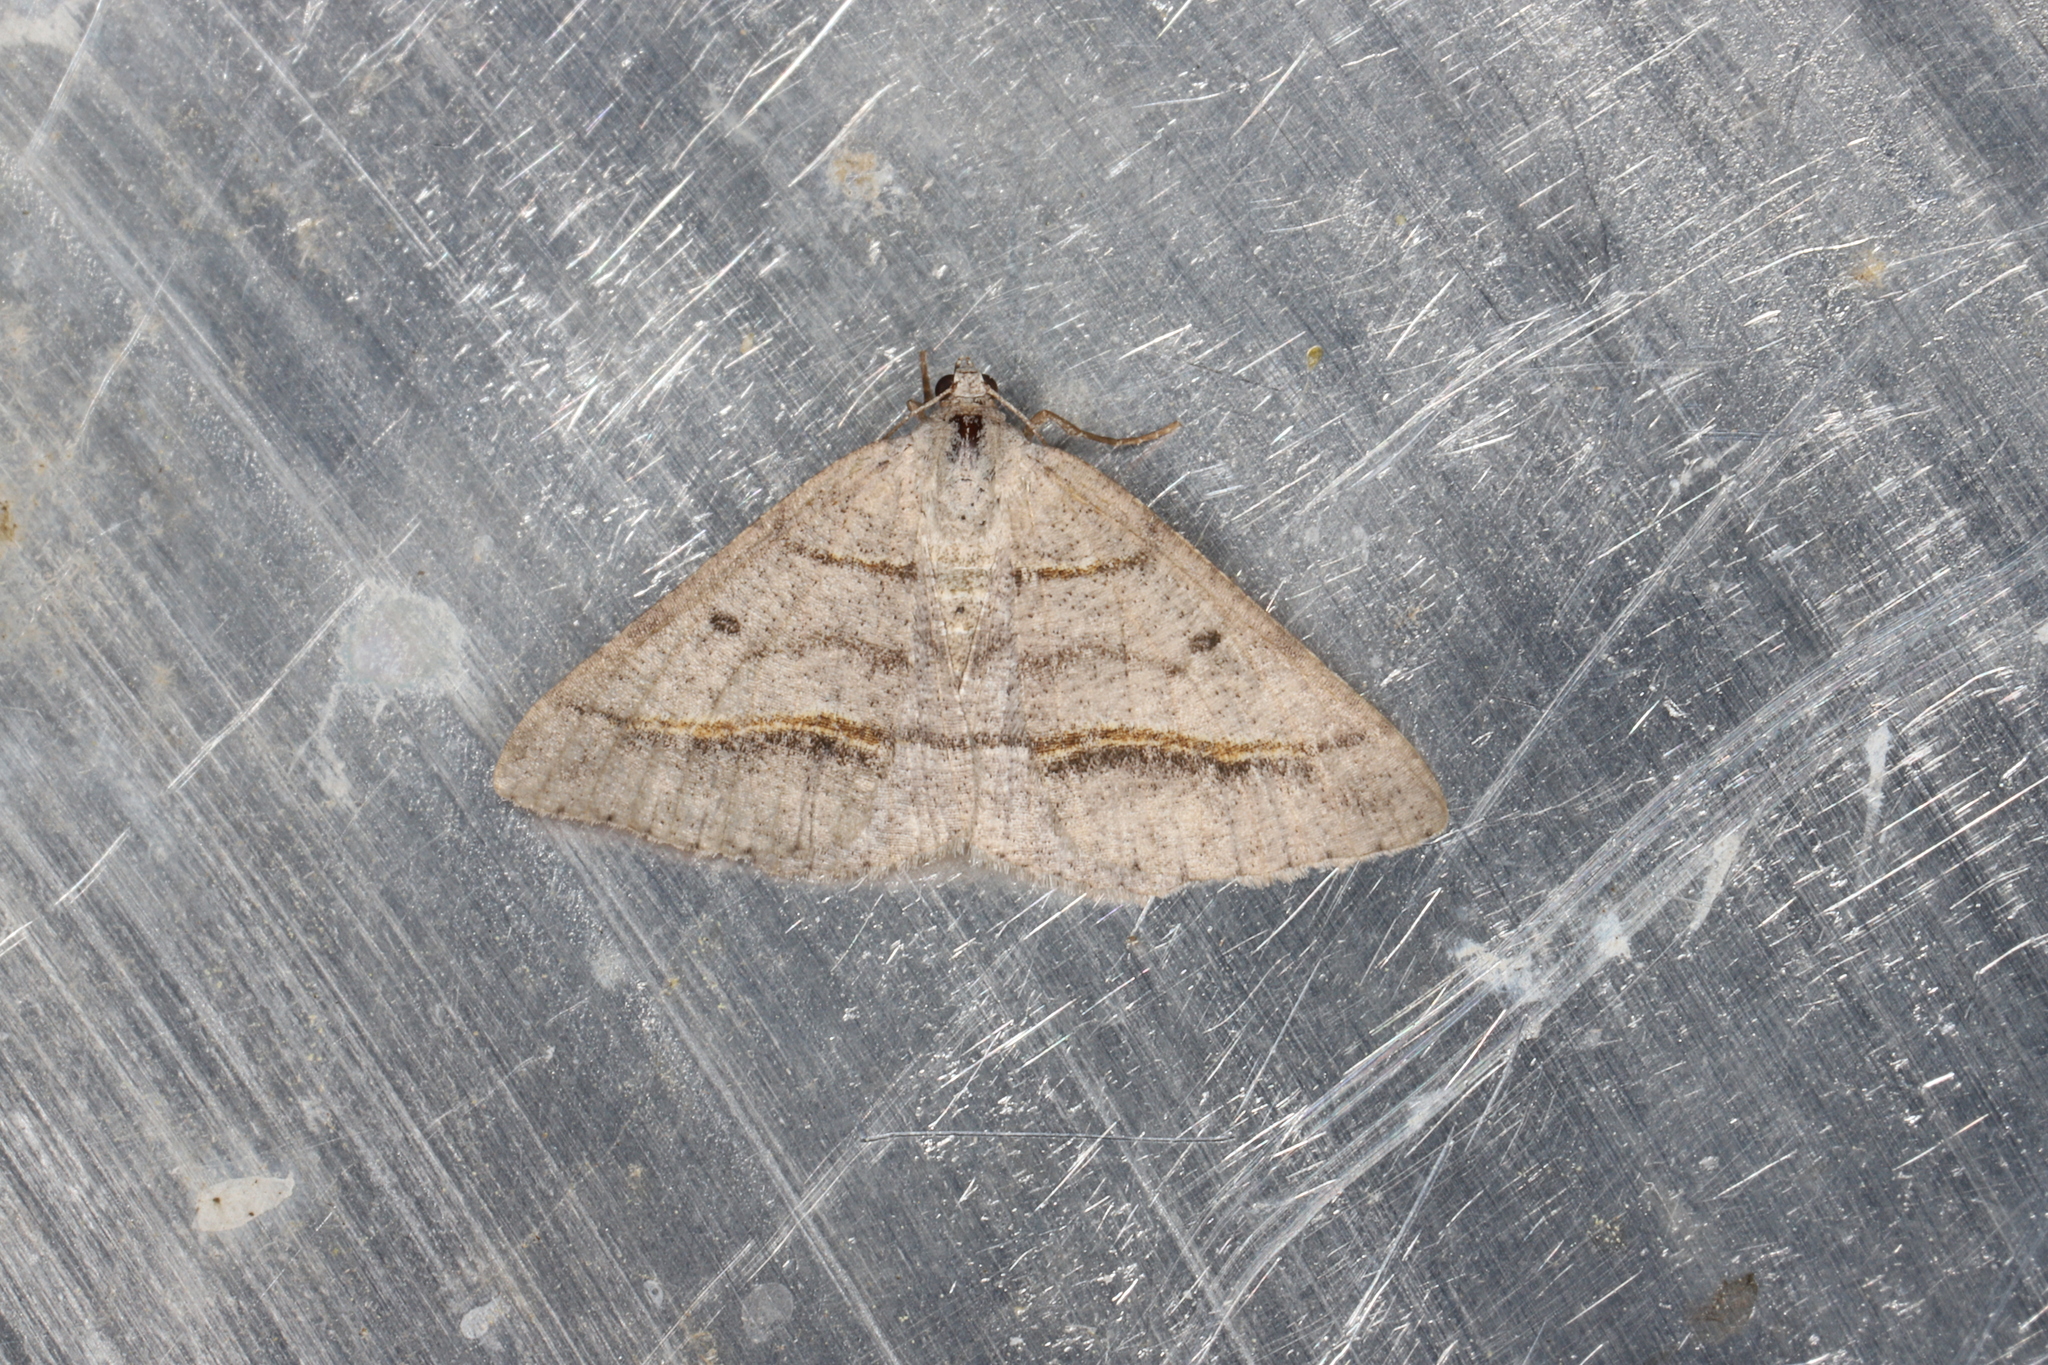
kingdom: Animalia
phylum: Arthropoda
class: Insecta
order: Lepidoptera
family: Geometridae
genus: Digrammia
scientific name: Digrammia neptaria
